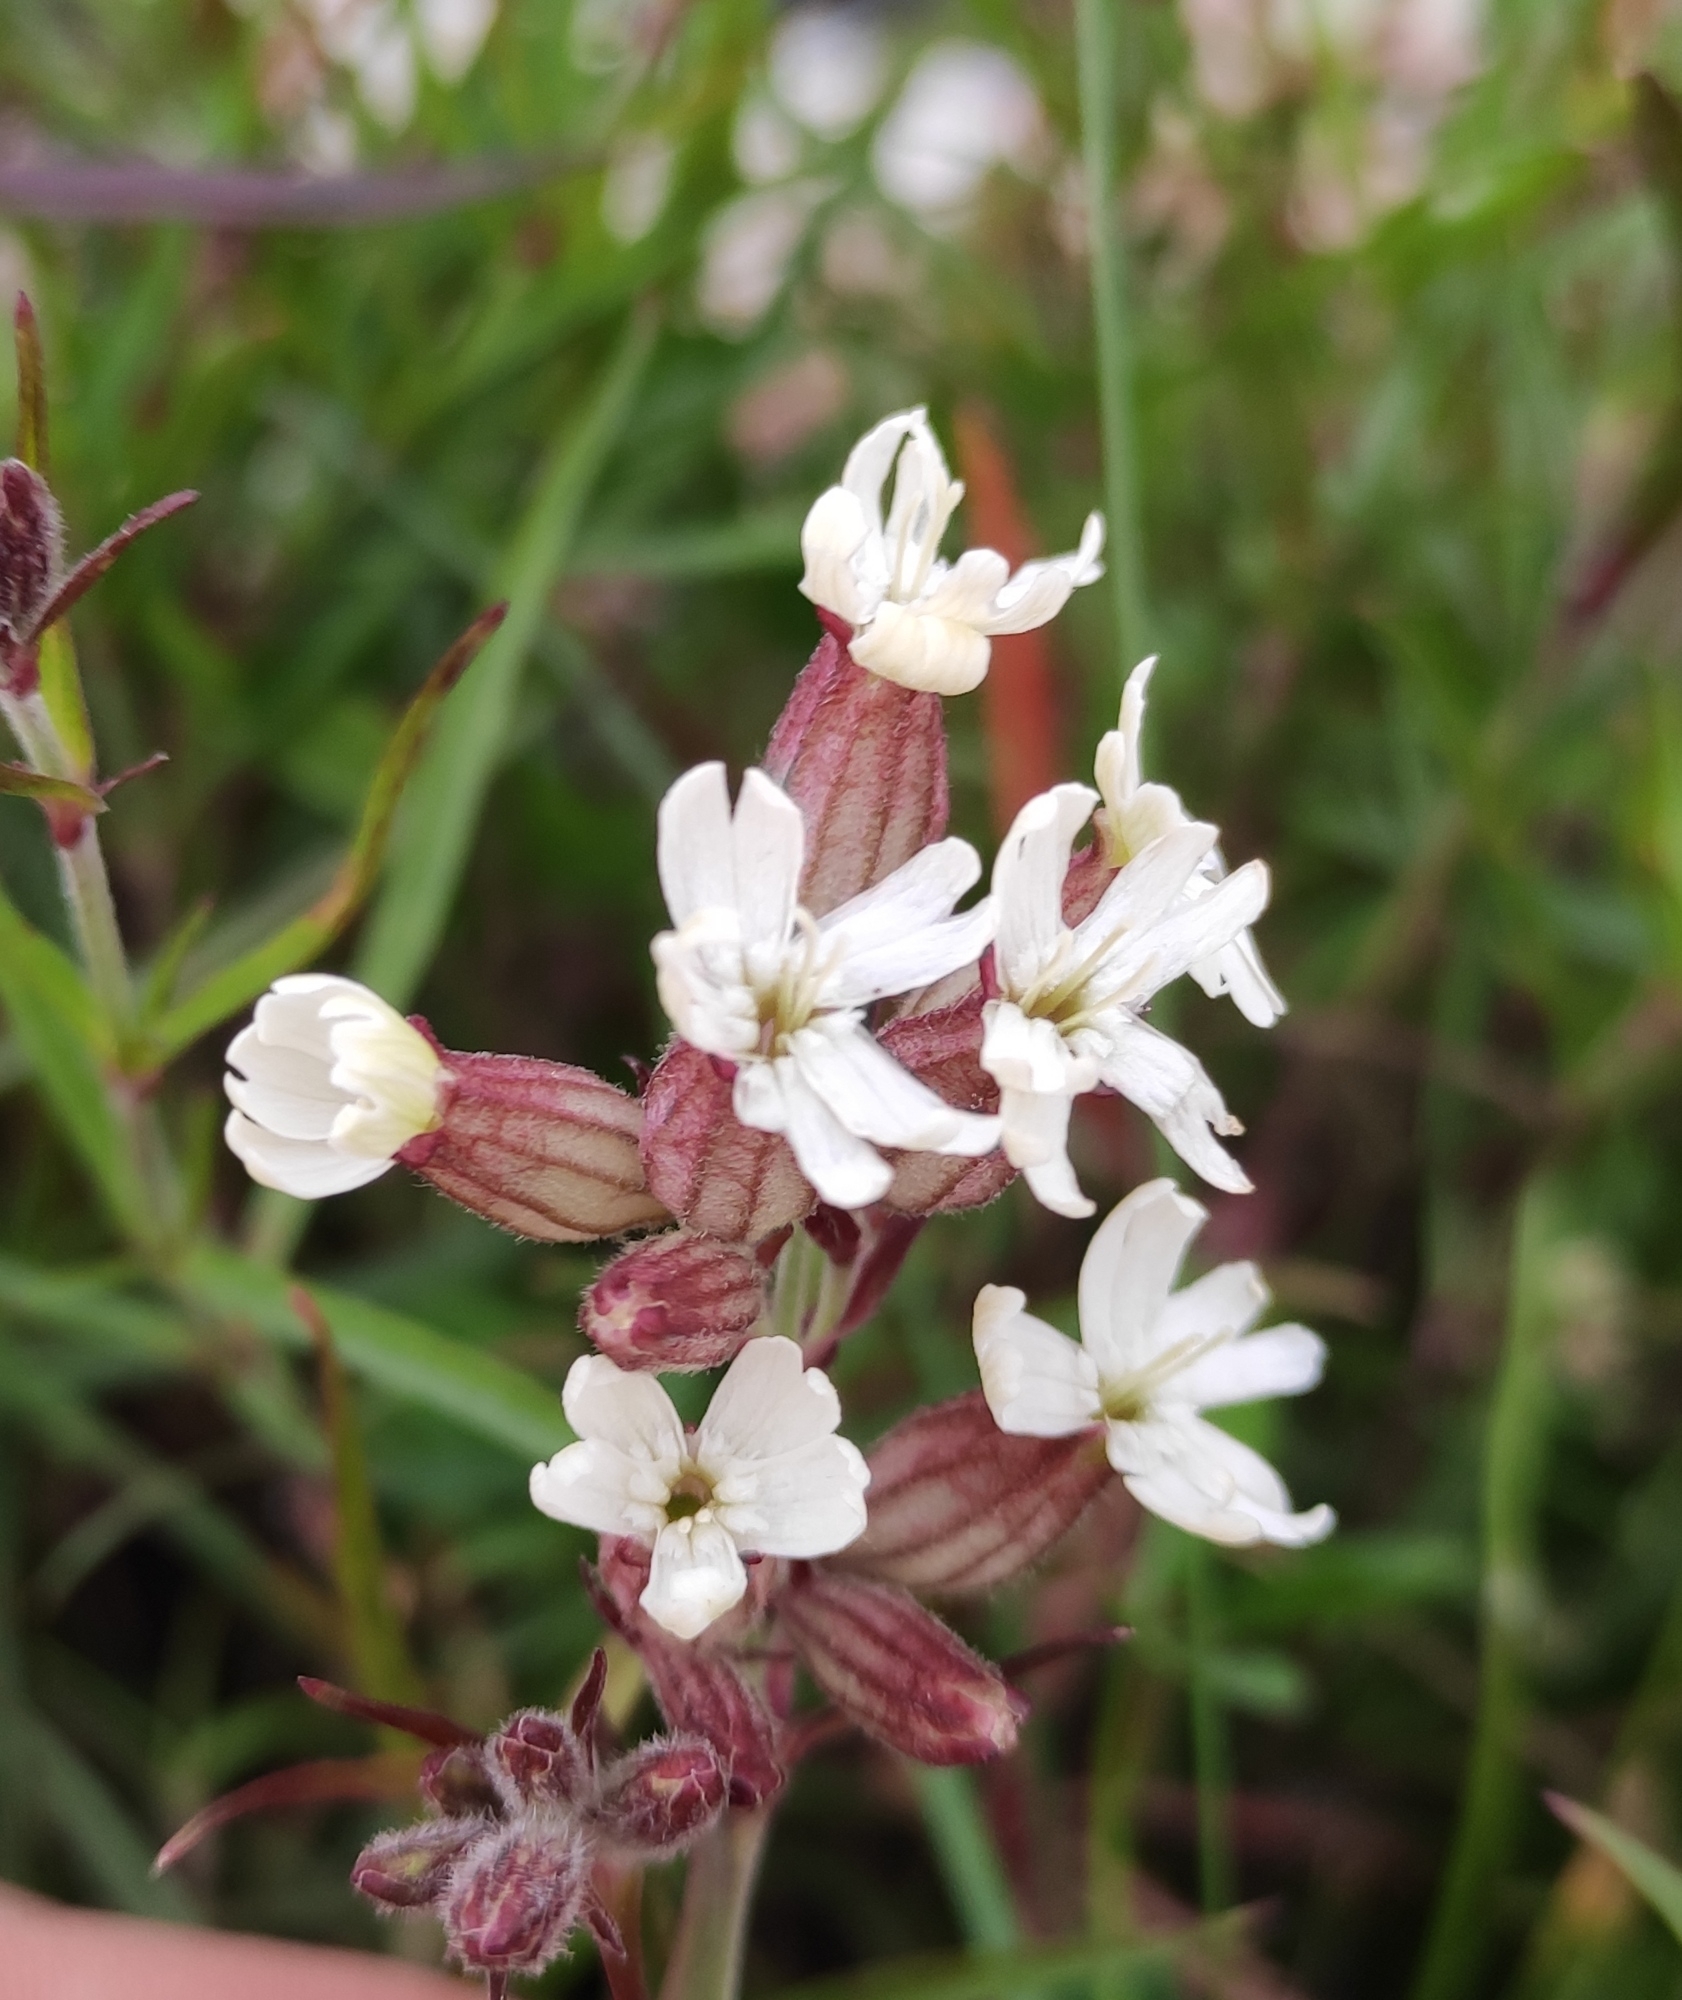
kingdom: Plantae
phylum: Tracheophyta
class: Magnoliopsida
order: Caryophyllales
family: Caryophyllaceae
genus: Silene
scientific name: Silene amoena
